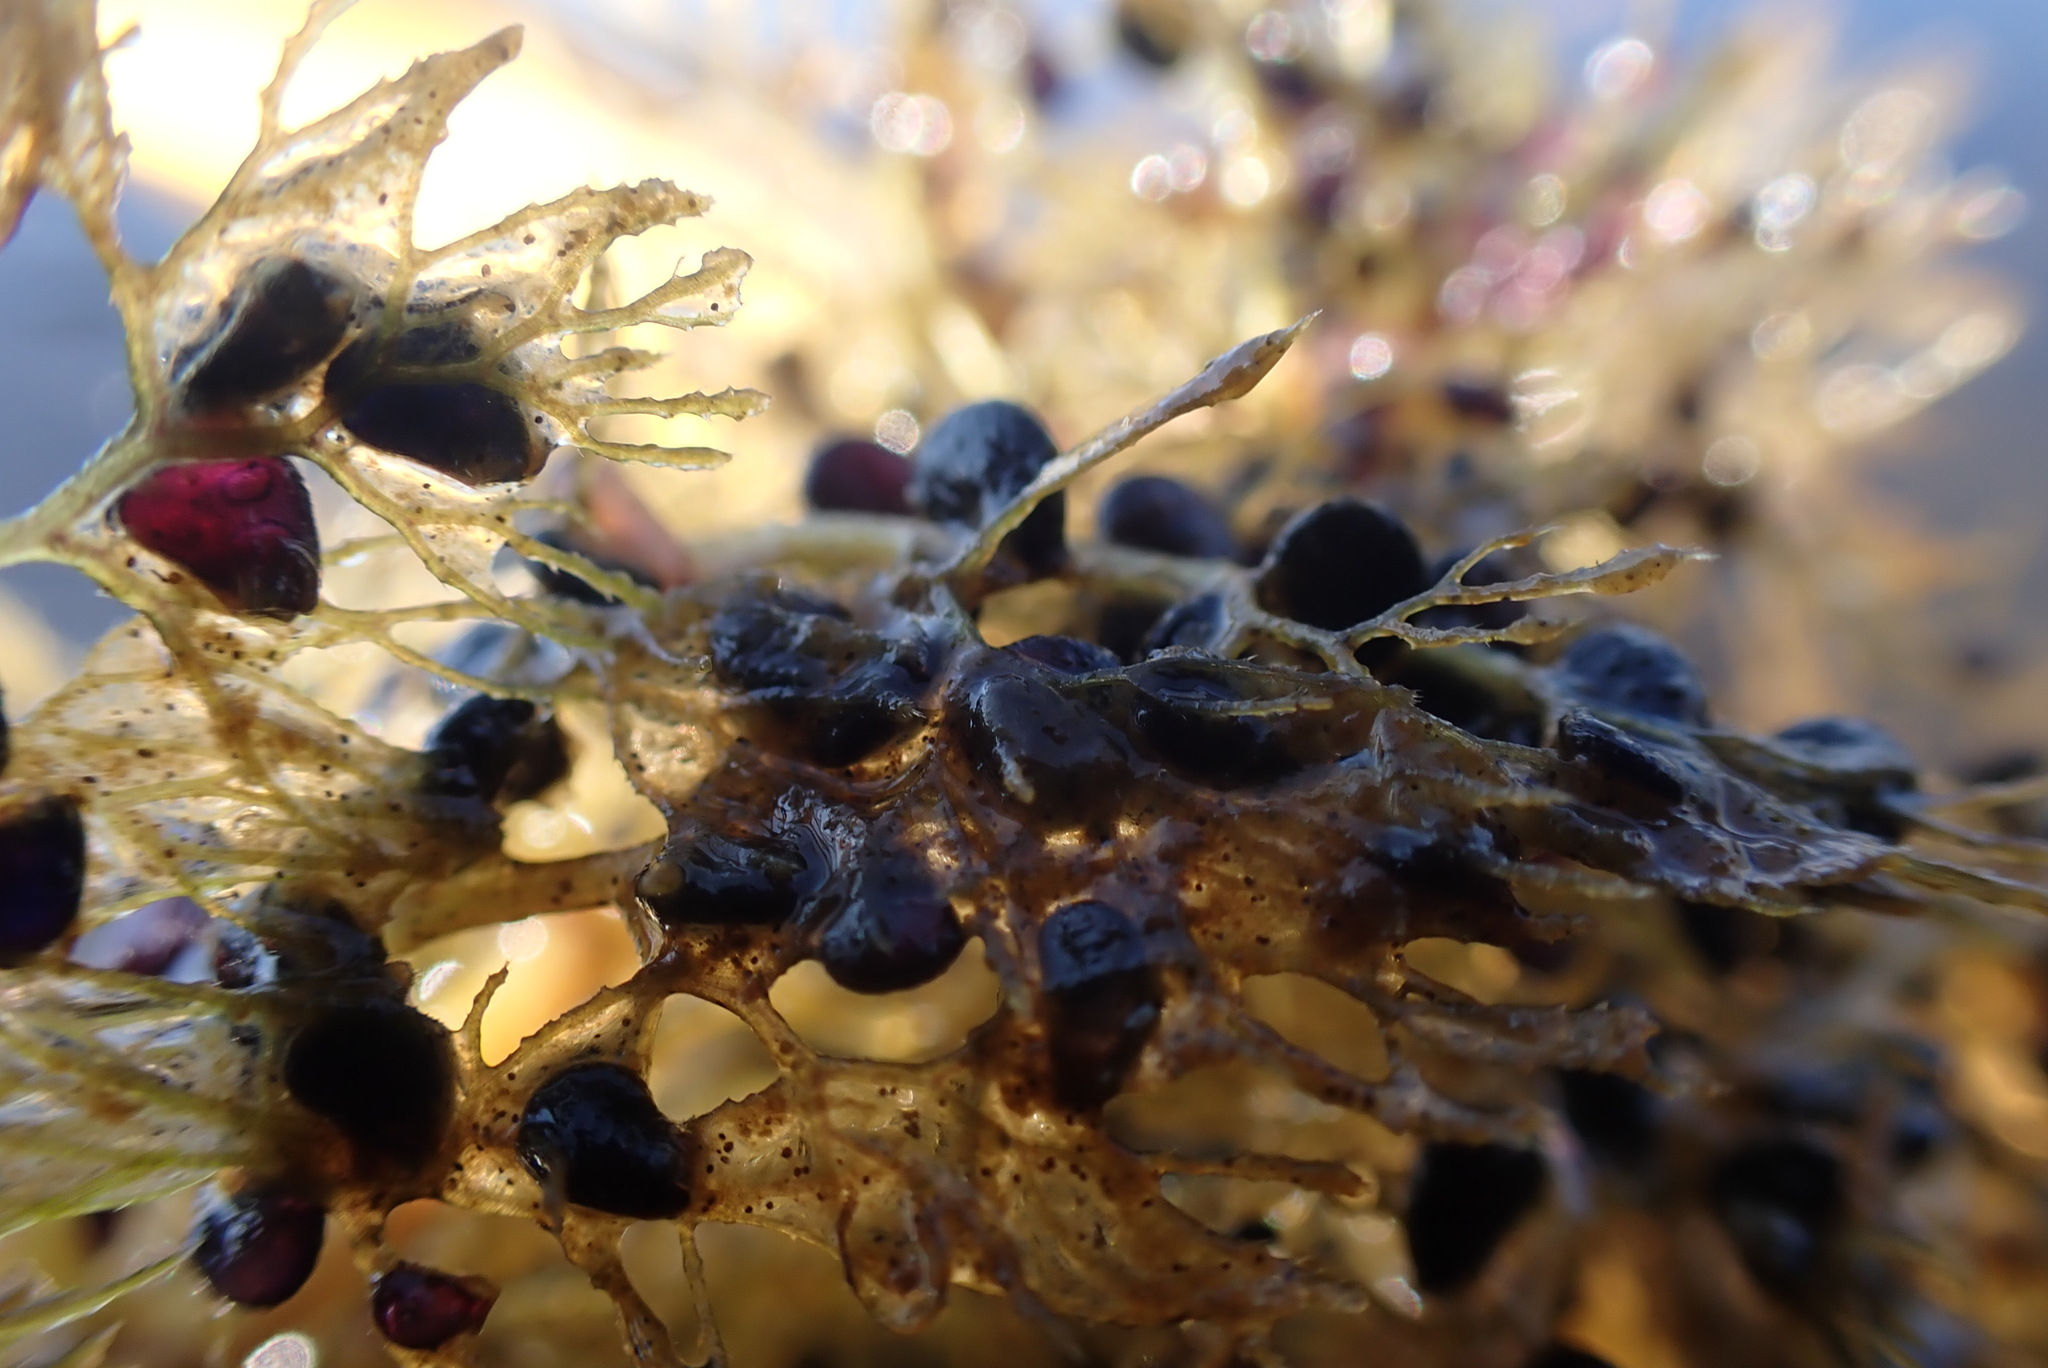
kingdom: Plantae
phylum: Tracheophyta
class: Magnoliopsida
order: Lamiales
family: Lentibulariaceae
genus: Utricularia
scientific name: Utricularia macrorhiza
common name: Common bladderwort
